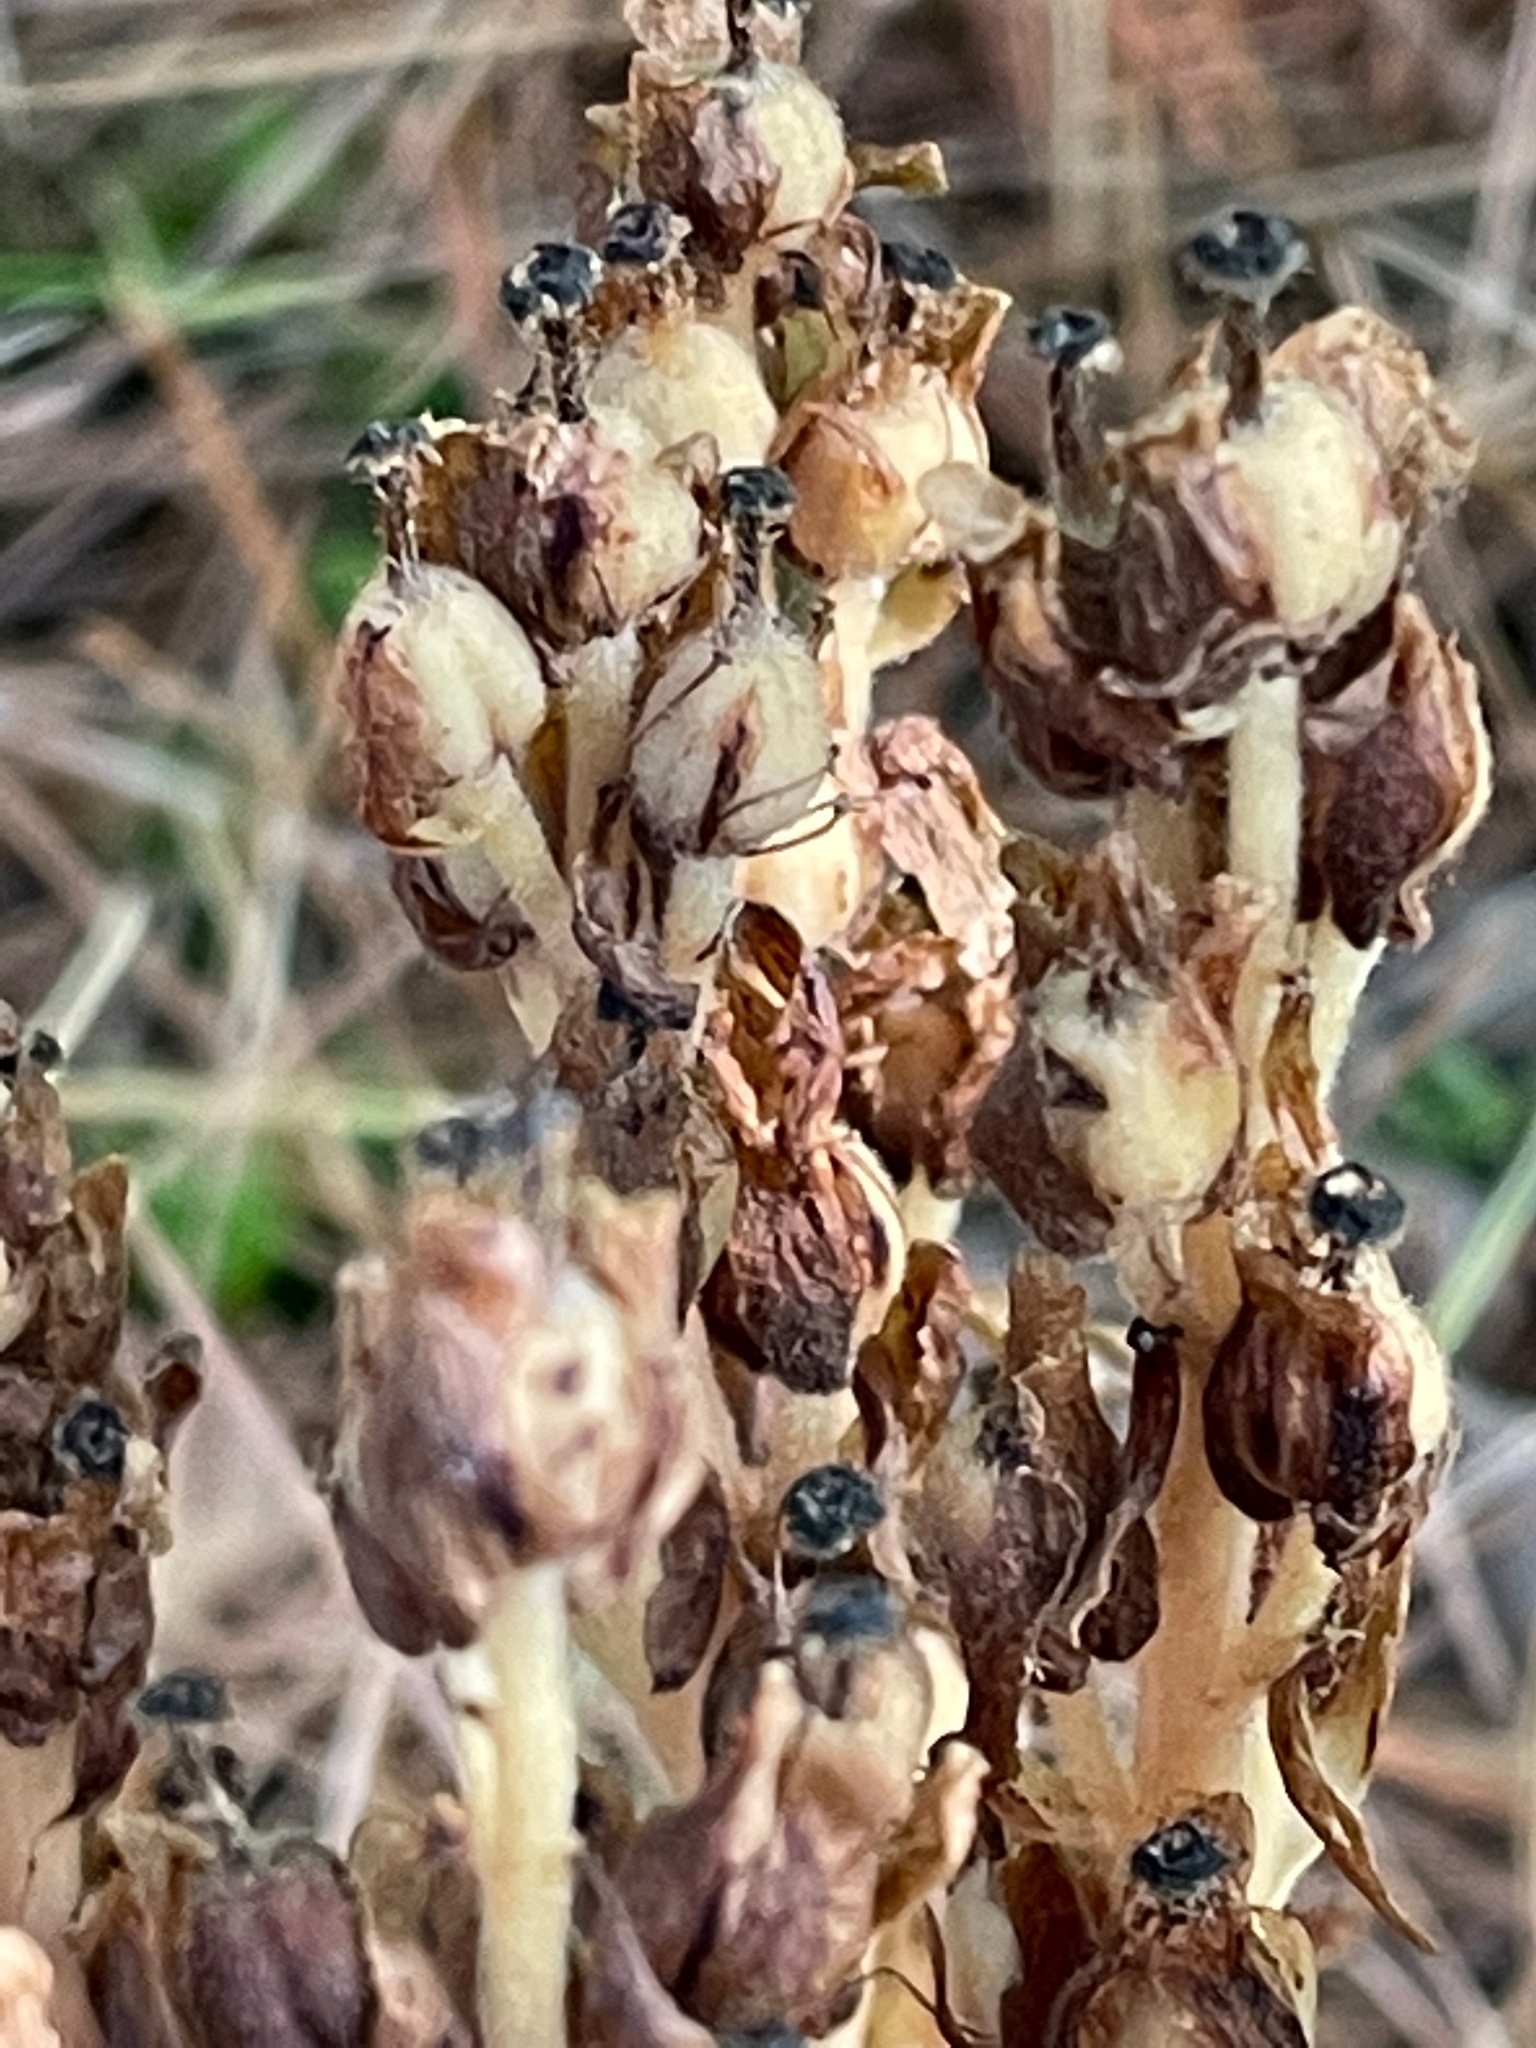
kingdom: Plantae
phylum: Tracheophyta
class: Magnoliopsida
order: Ericales
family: Ericaceae
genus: Hypopitys
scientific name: Hypopitys monotropa
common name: Yellow bird's-nest
